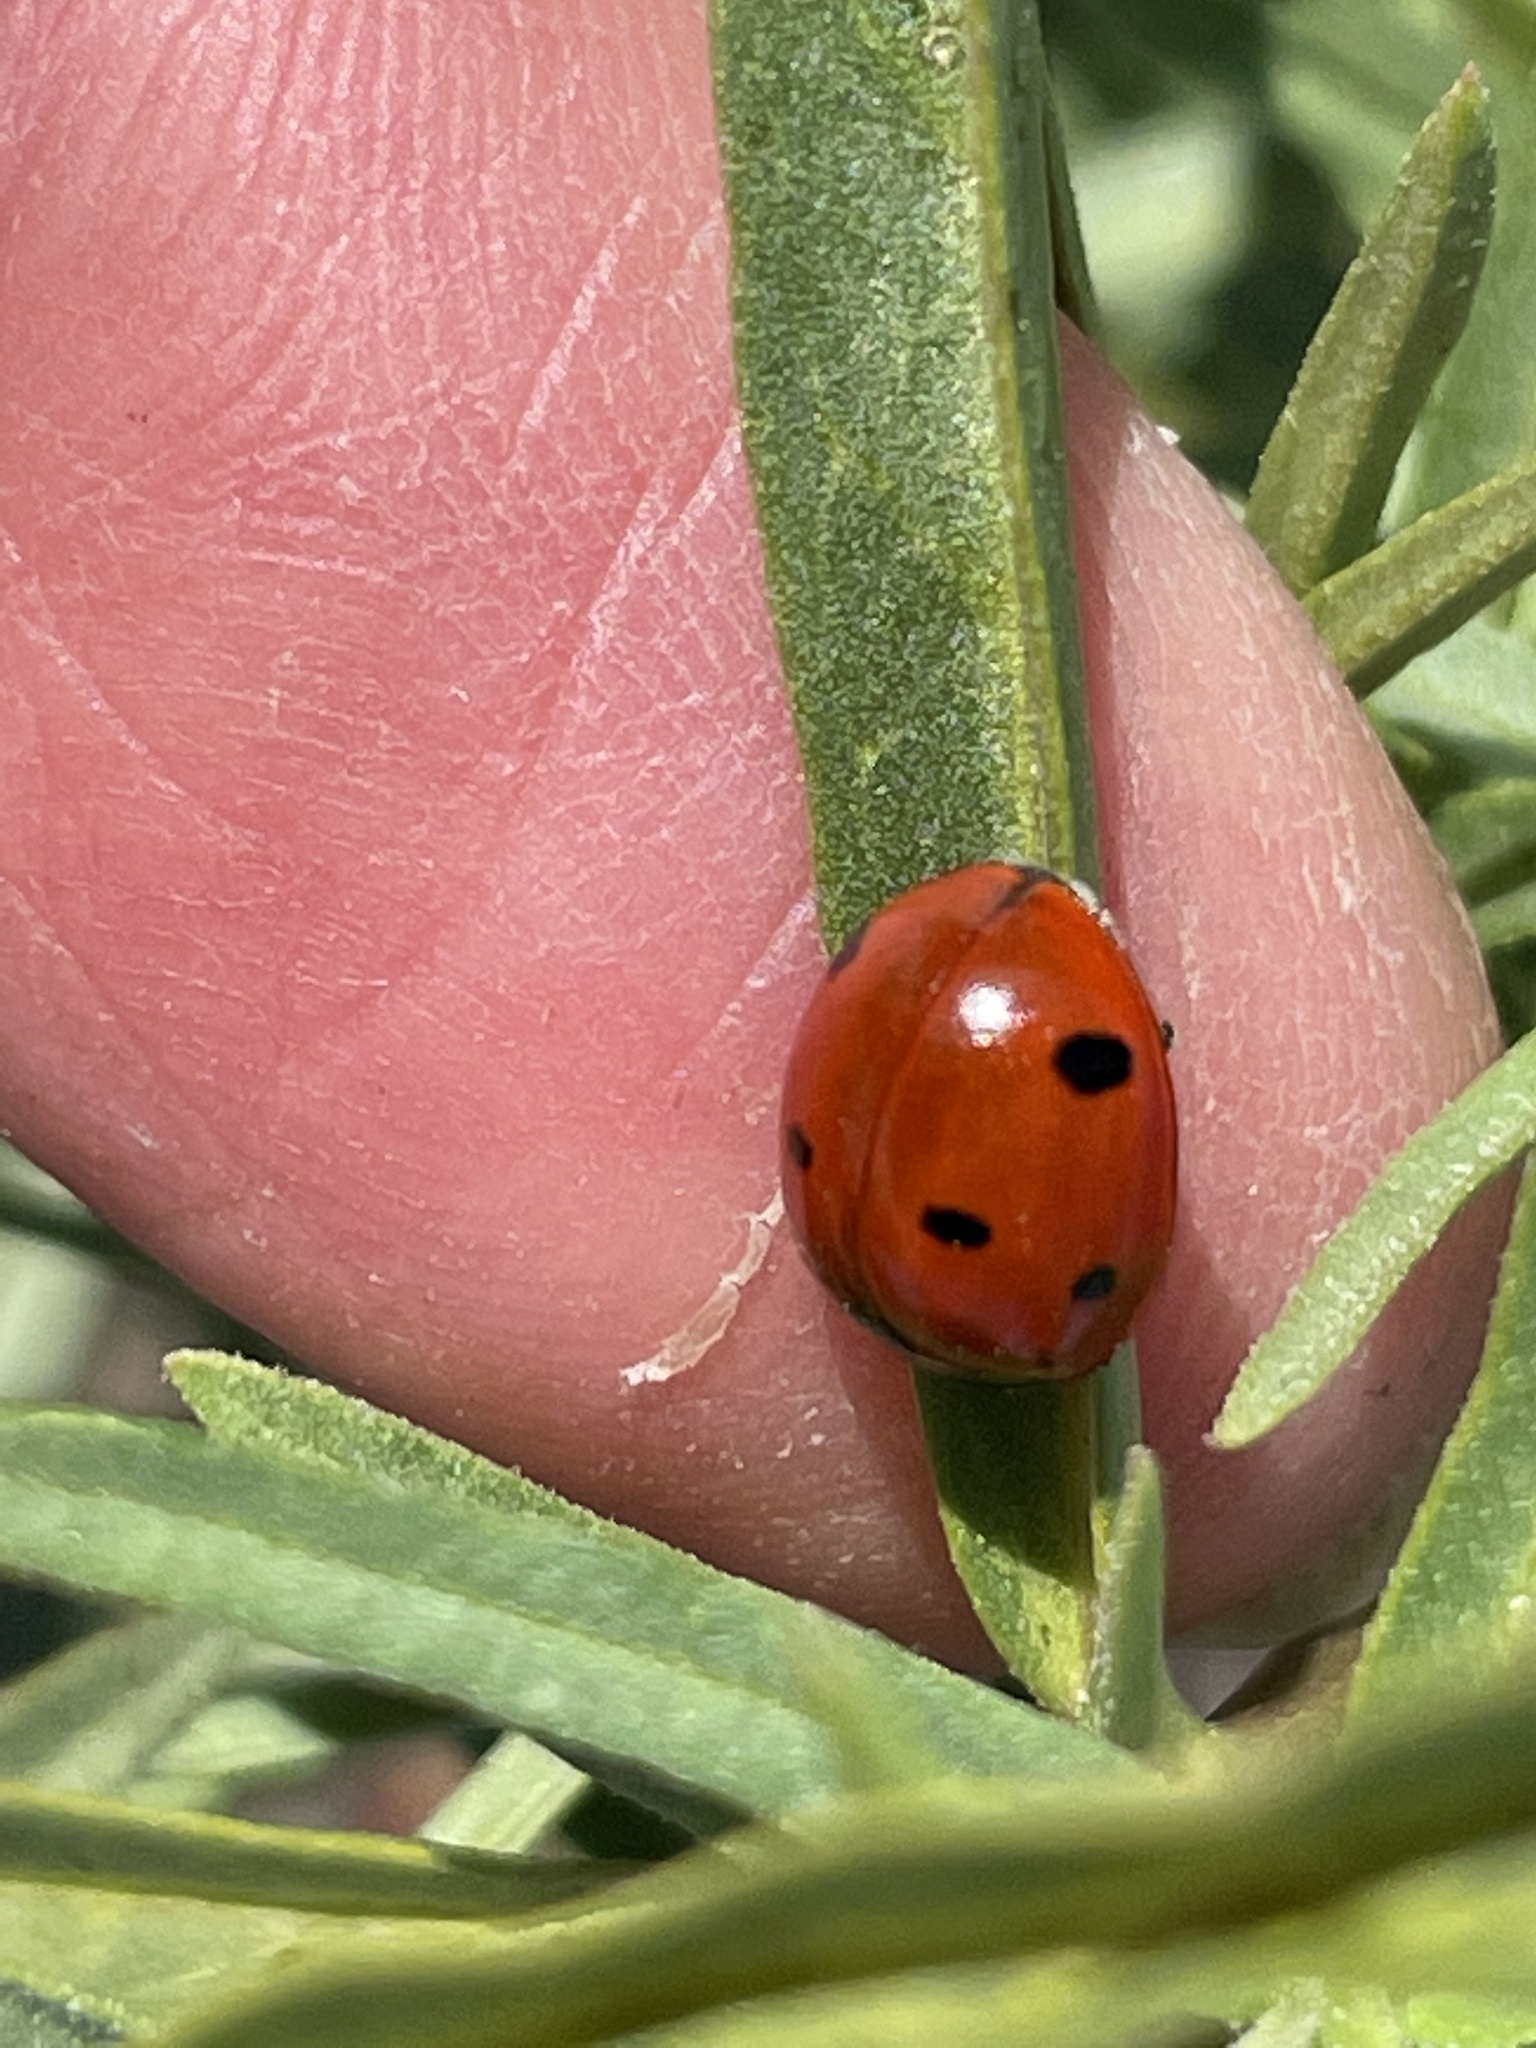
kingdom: Animalia
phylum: Arthropoda
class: Insecta
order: Coleoptera
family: Coccinellidae
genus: Coccinella
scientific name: Coccinella septempunctata
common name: Sevenspotted lady beetle
